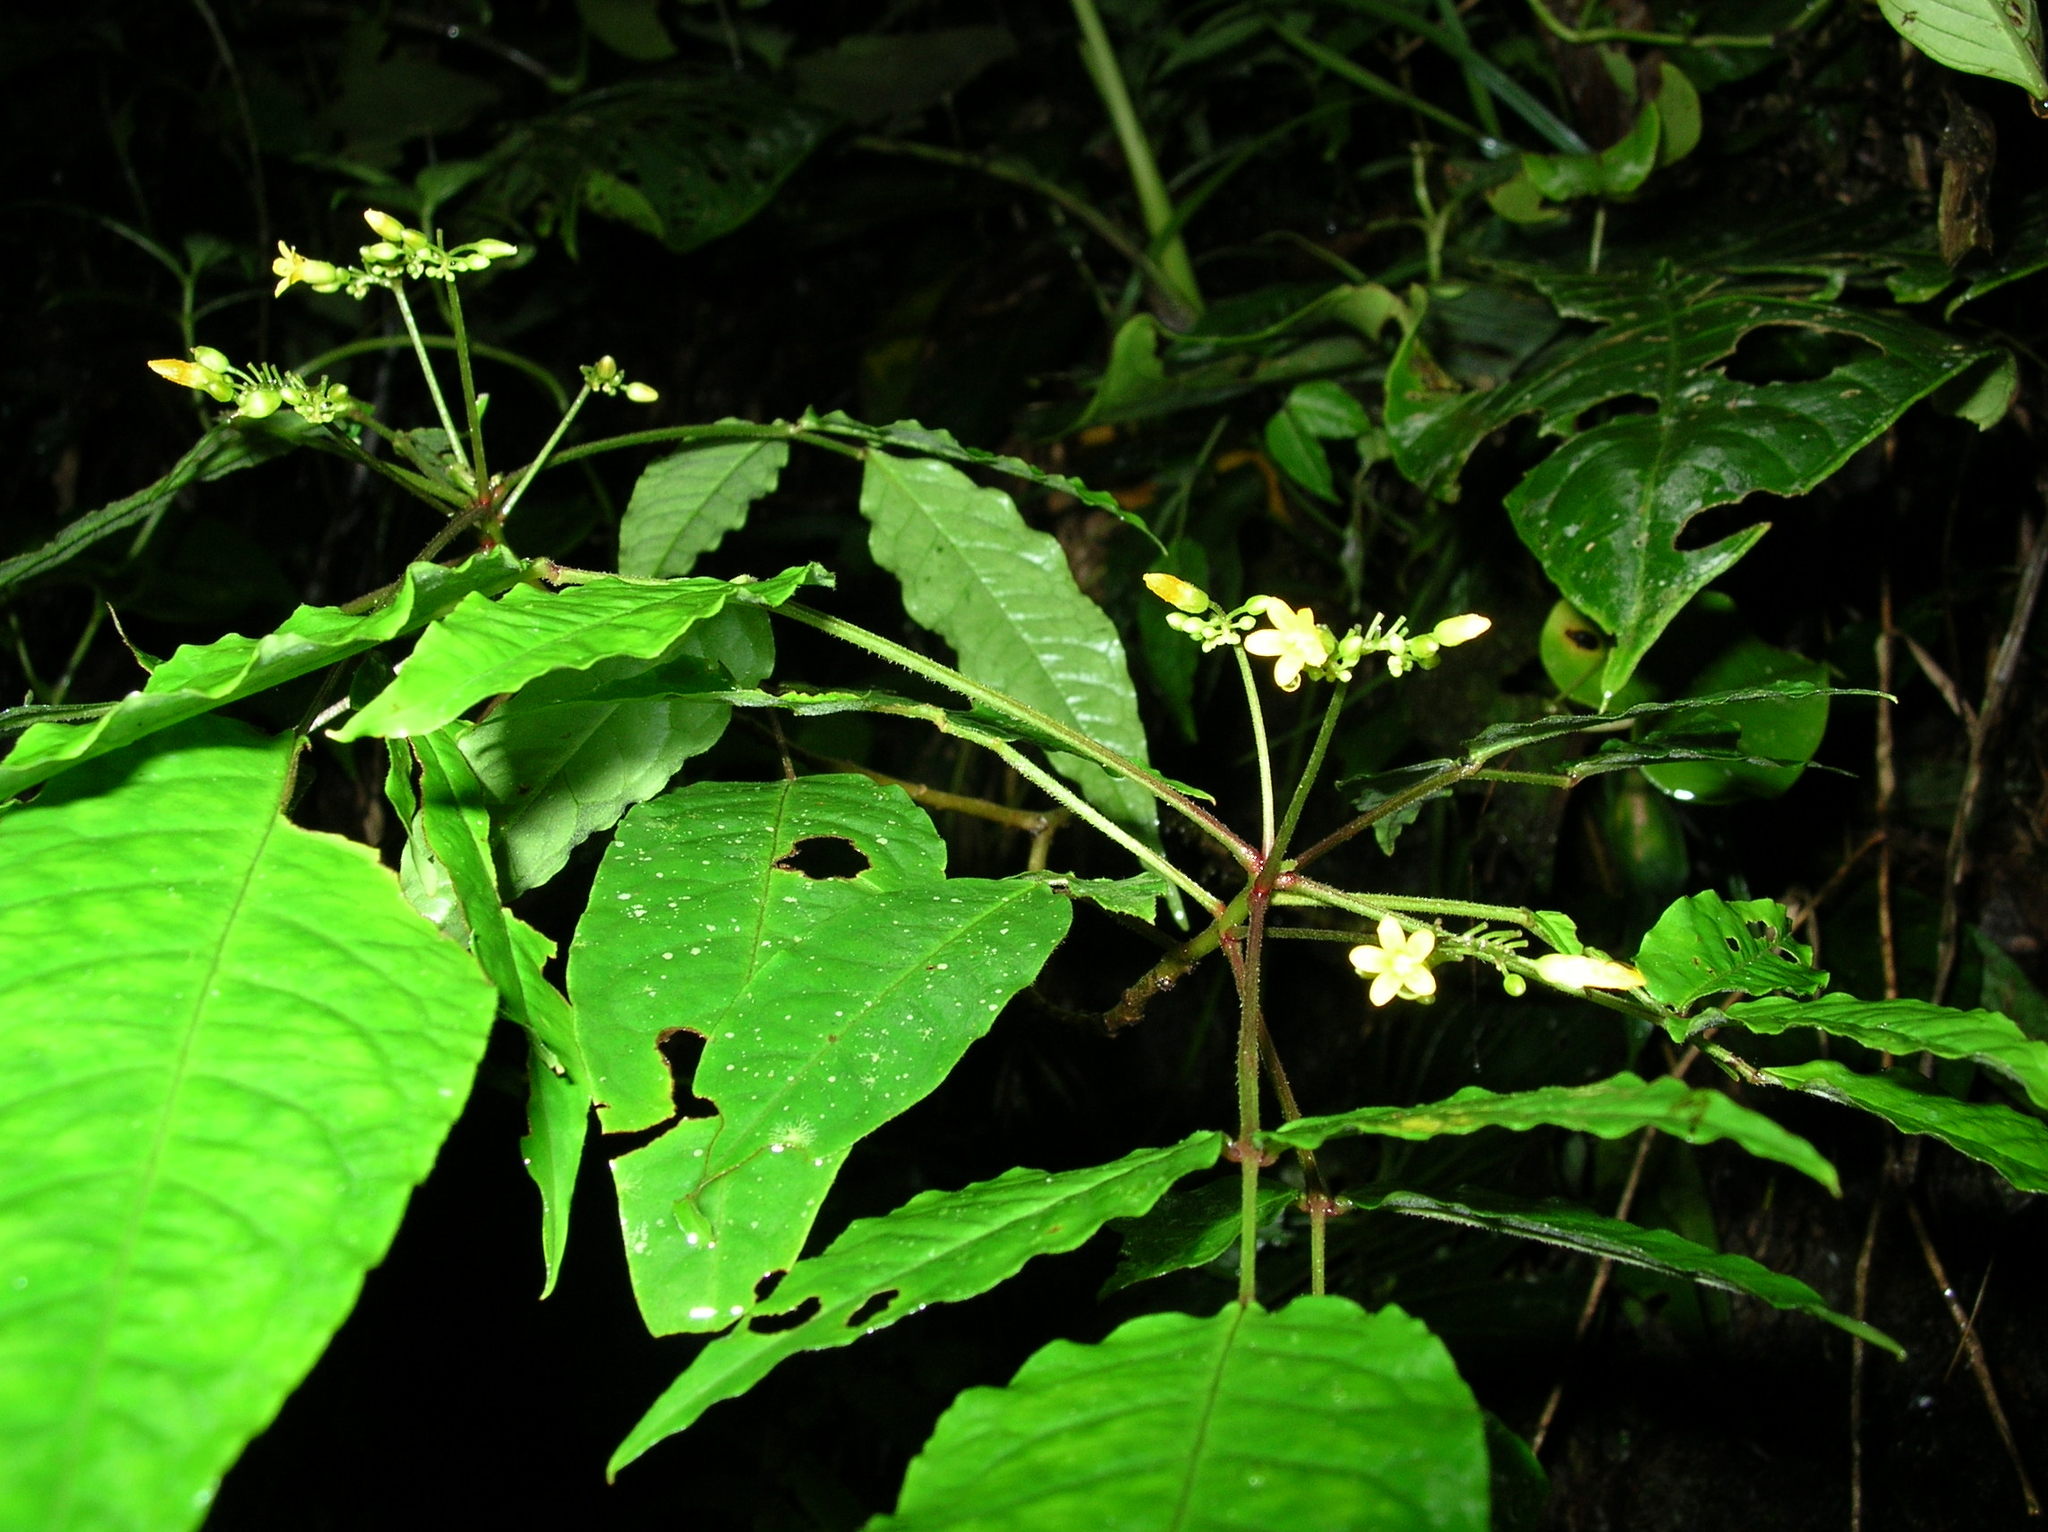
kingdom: Plantae
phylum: Tracheophyta
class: Magnoliopsida
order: Oxalidales
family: Oxalidaceae
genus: Oxalis
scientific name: Oxalis zamorana
